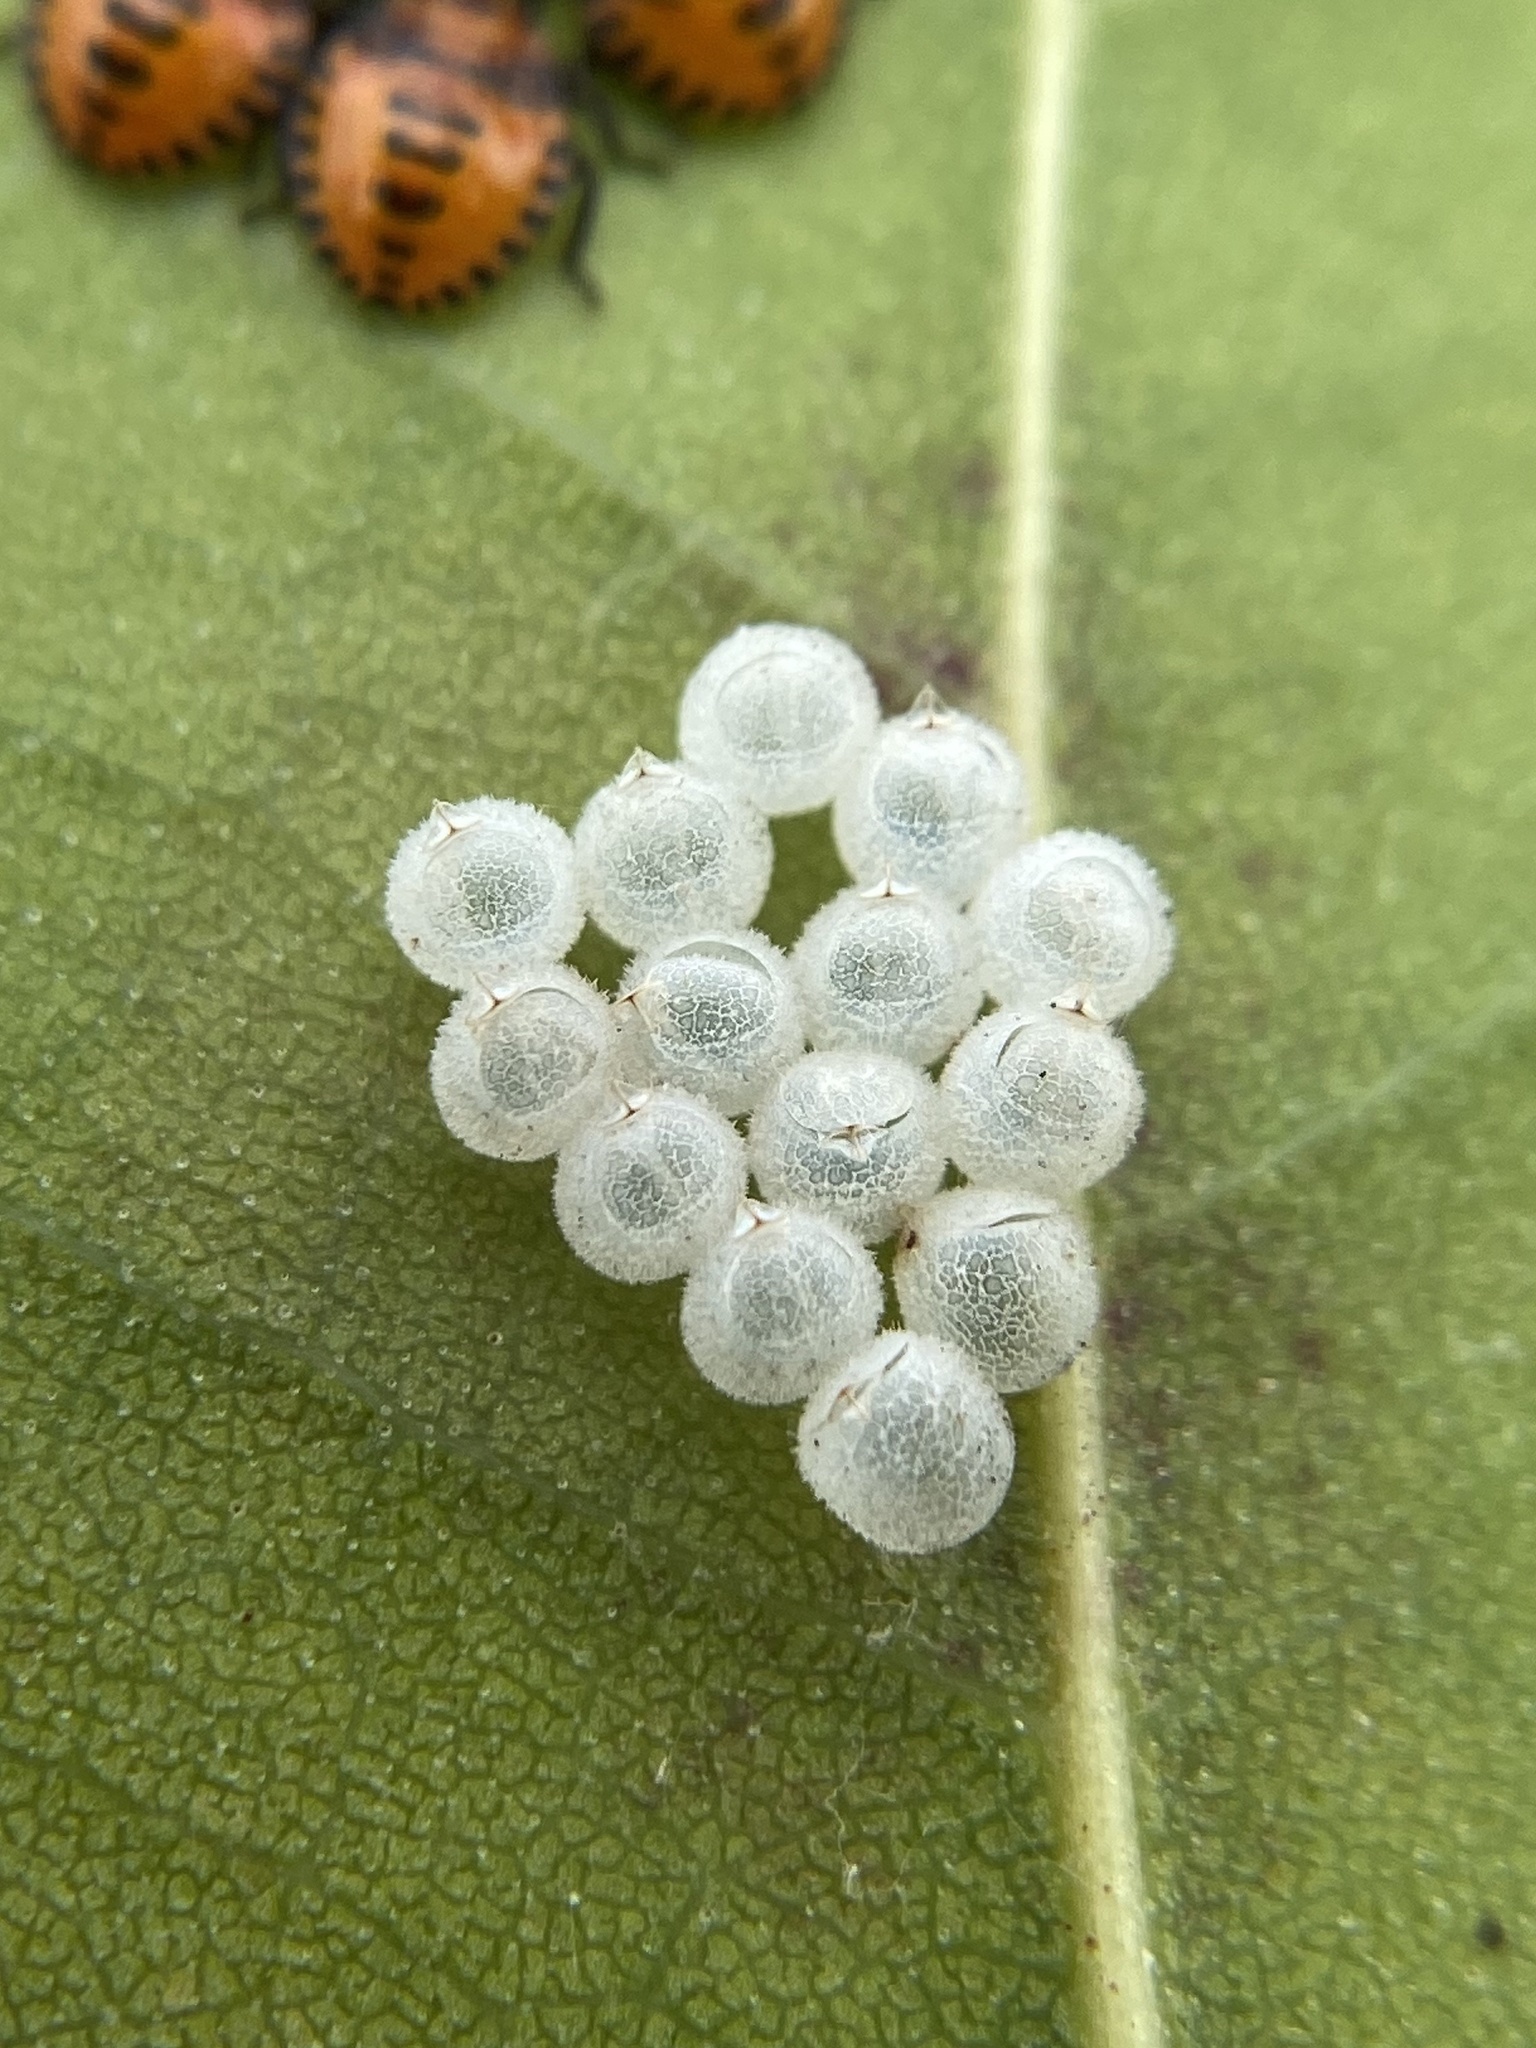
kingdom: Animalia
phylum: Arthropoda
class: Insecta
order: Hemiptera
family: Pentatomidae
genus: Arvelius
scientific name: Arvelius albopunctatus
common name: Tomato stink bug
